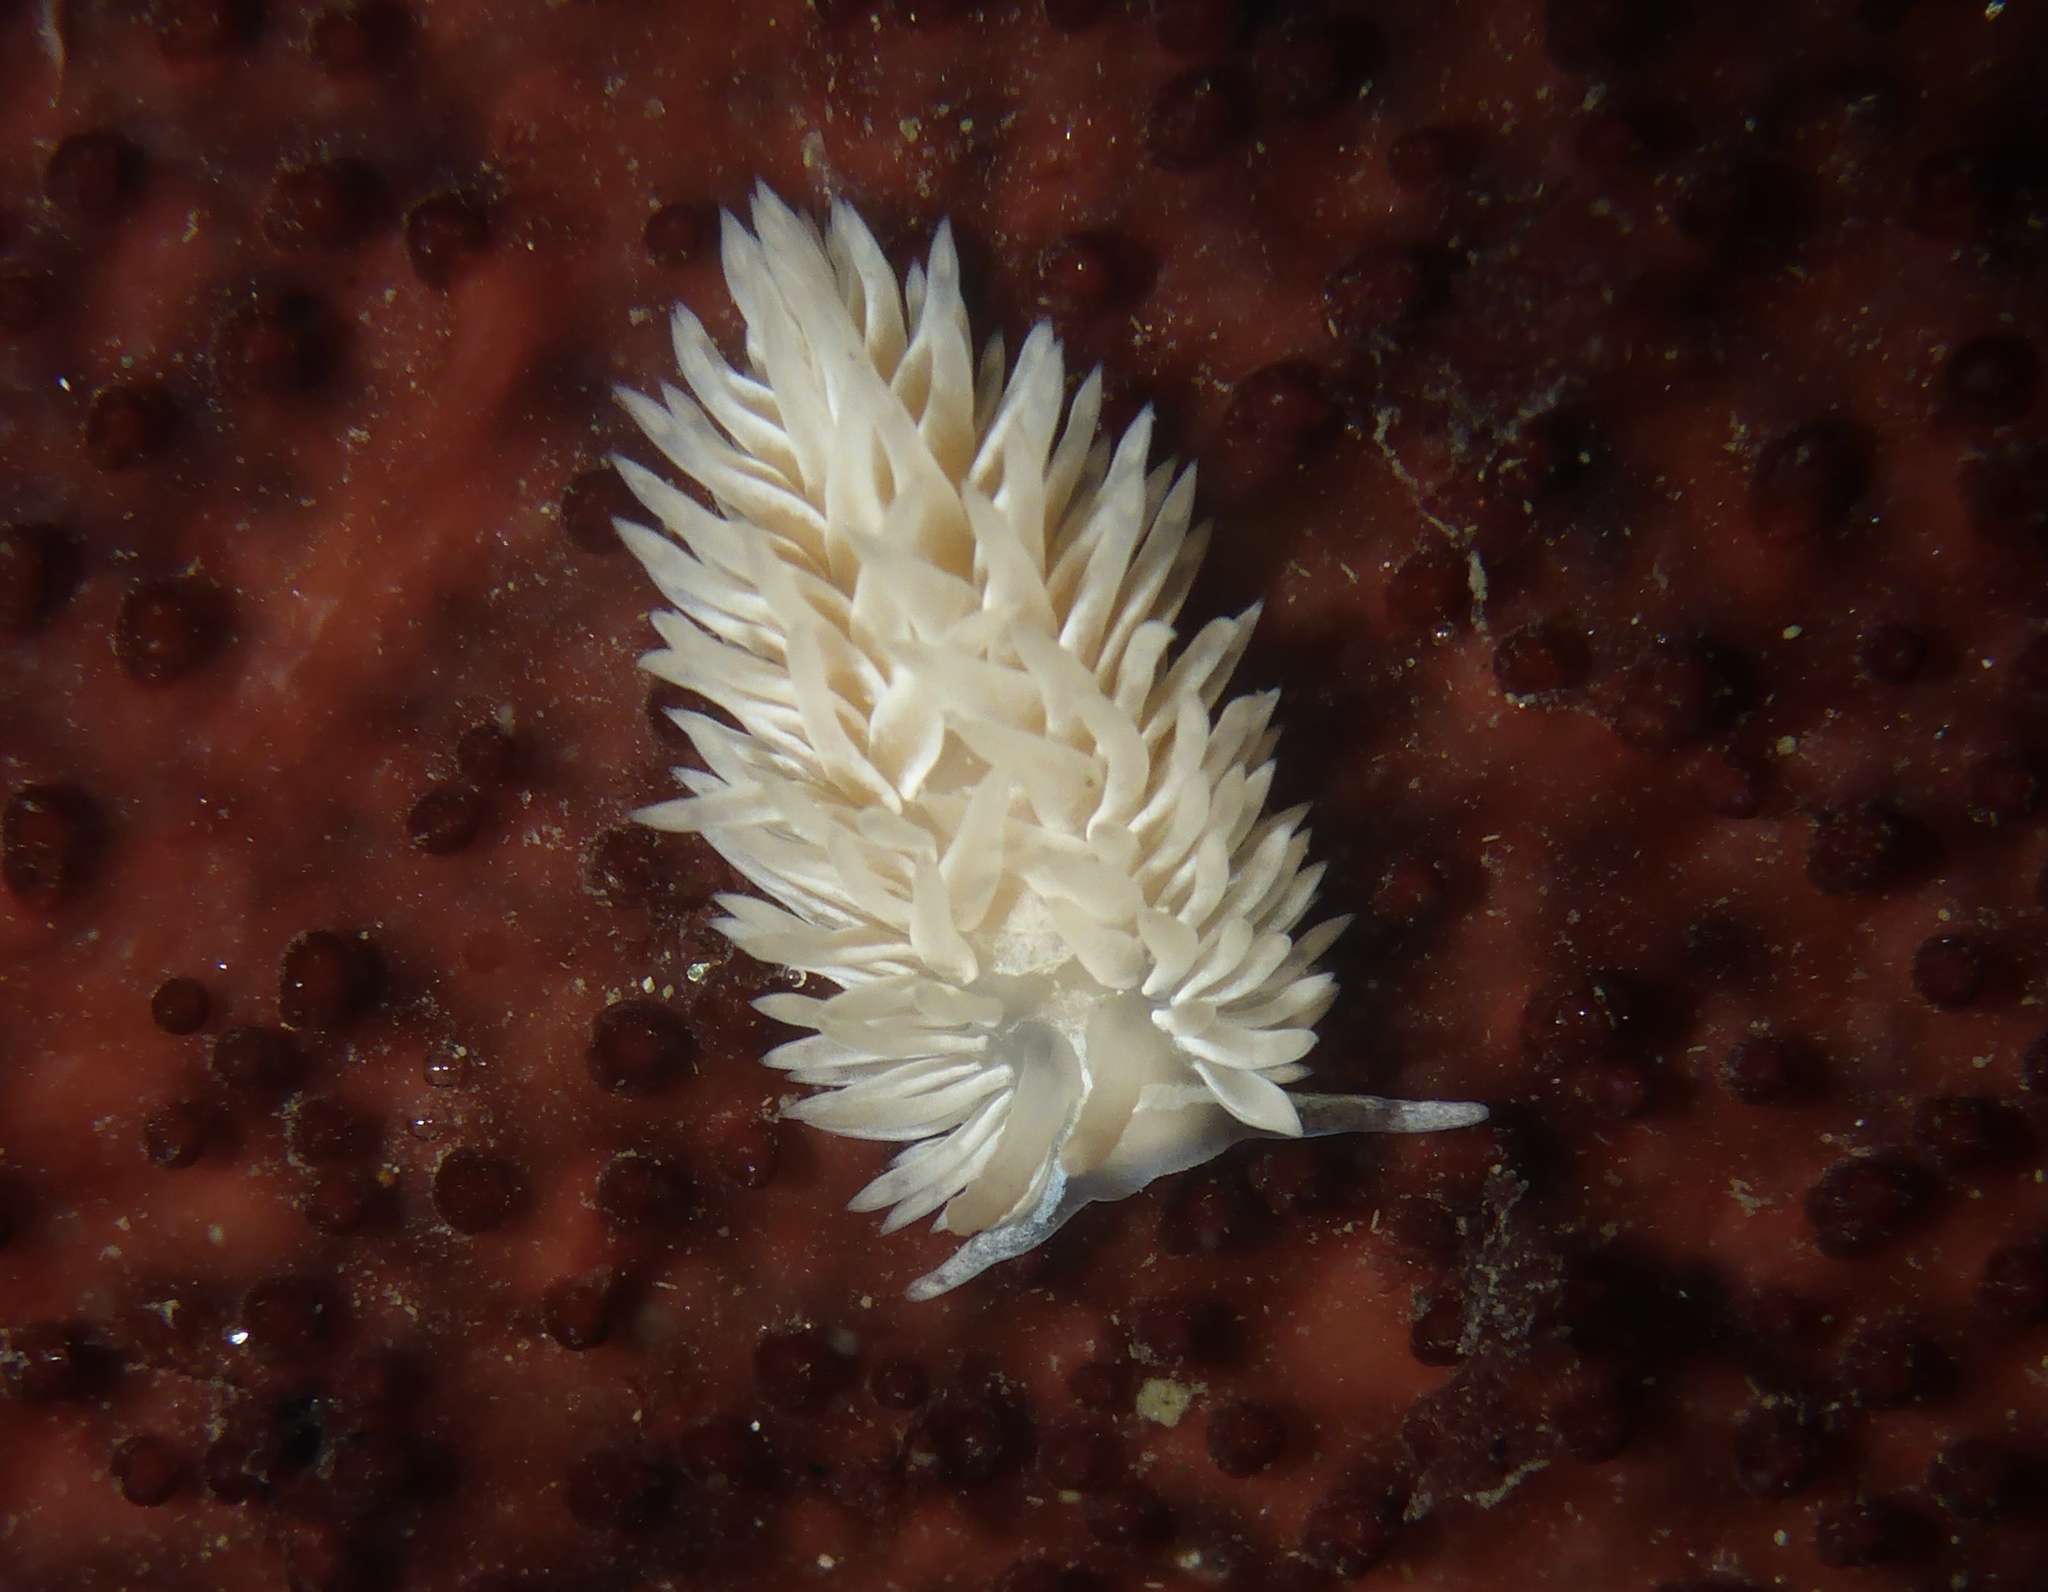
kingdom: Animalia
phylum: Mollusca
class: Gastropoda
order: Nudibranchia
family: Aeolidiidae
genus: Aeolidia
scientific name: Aeolidia loui
